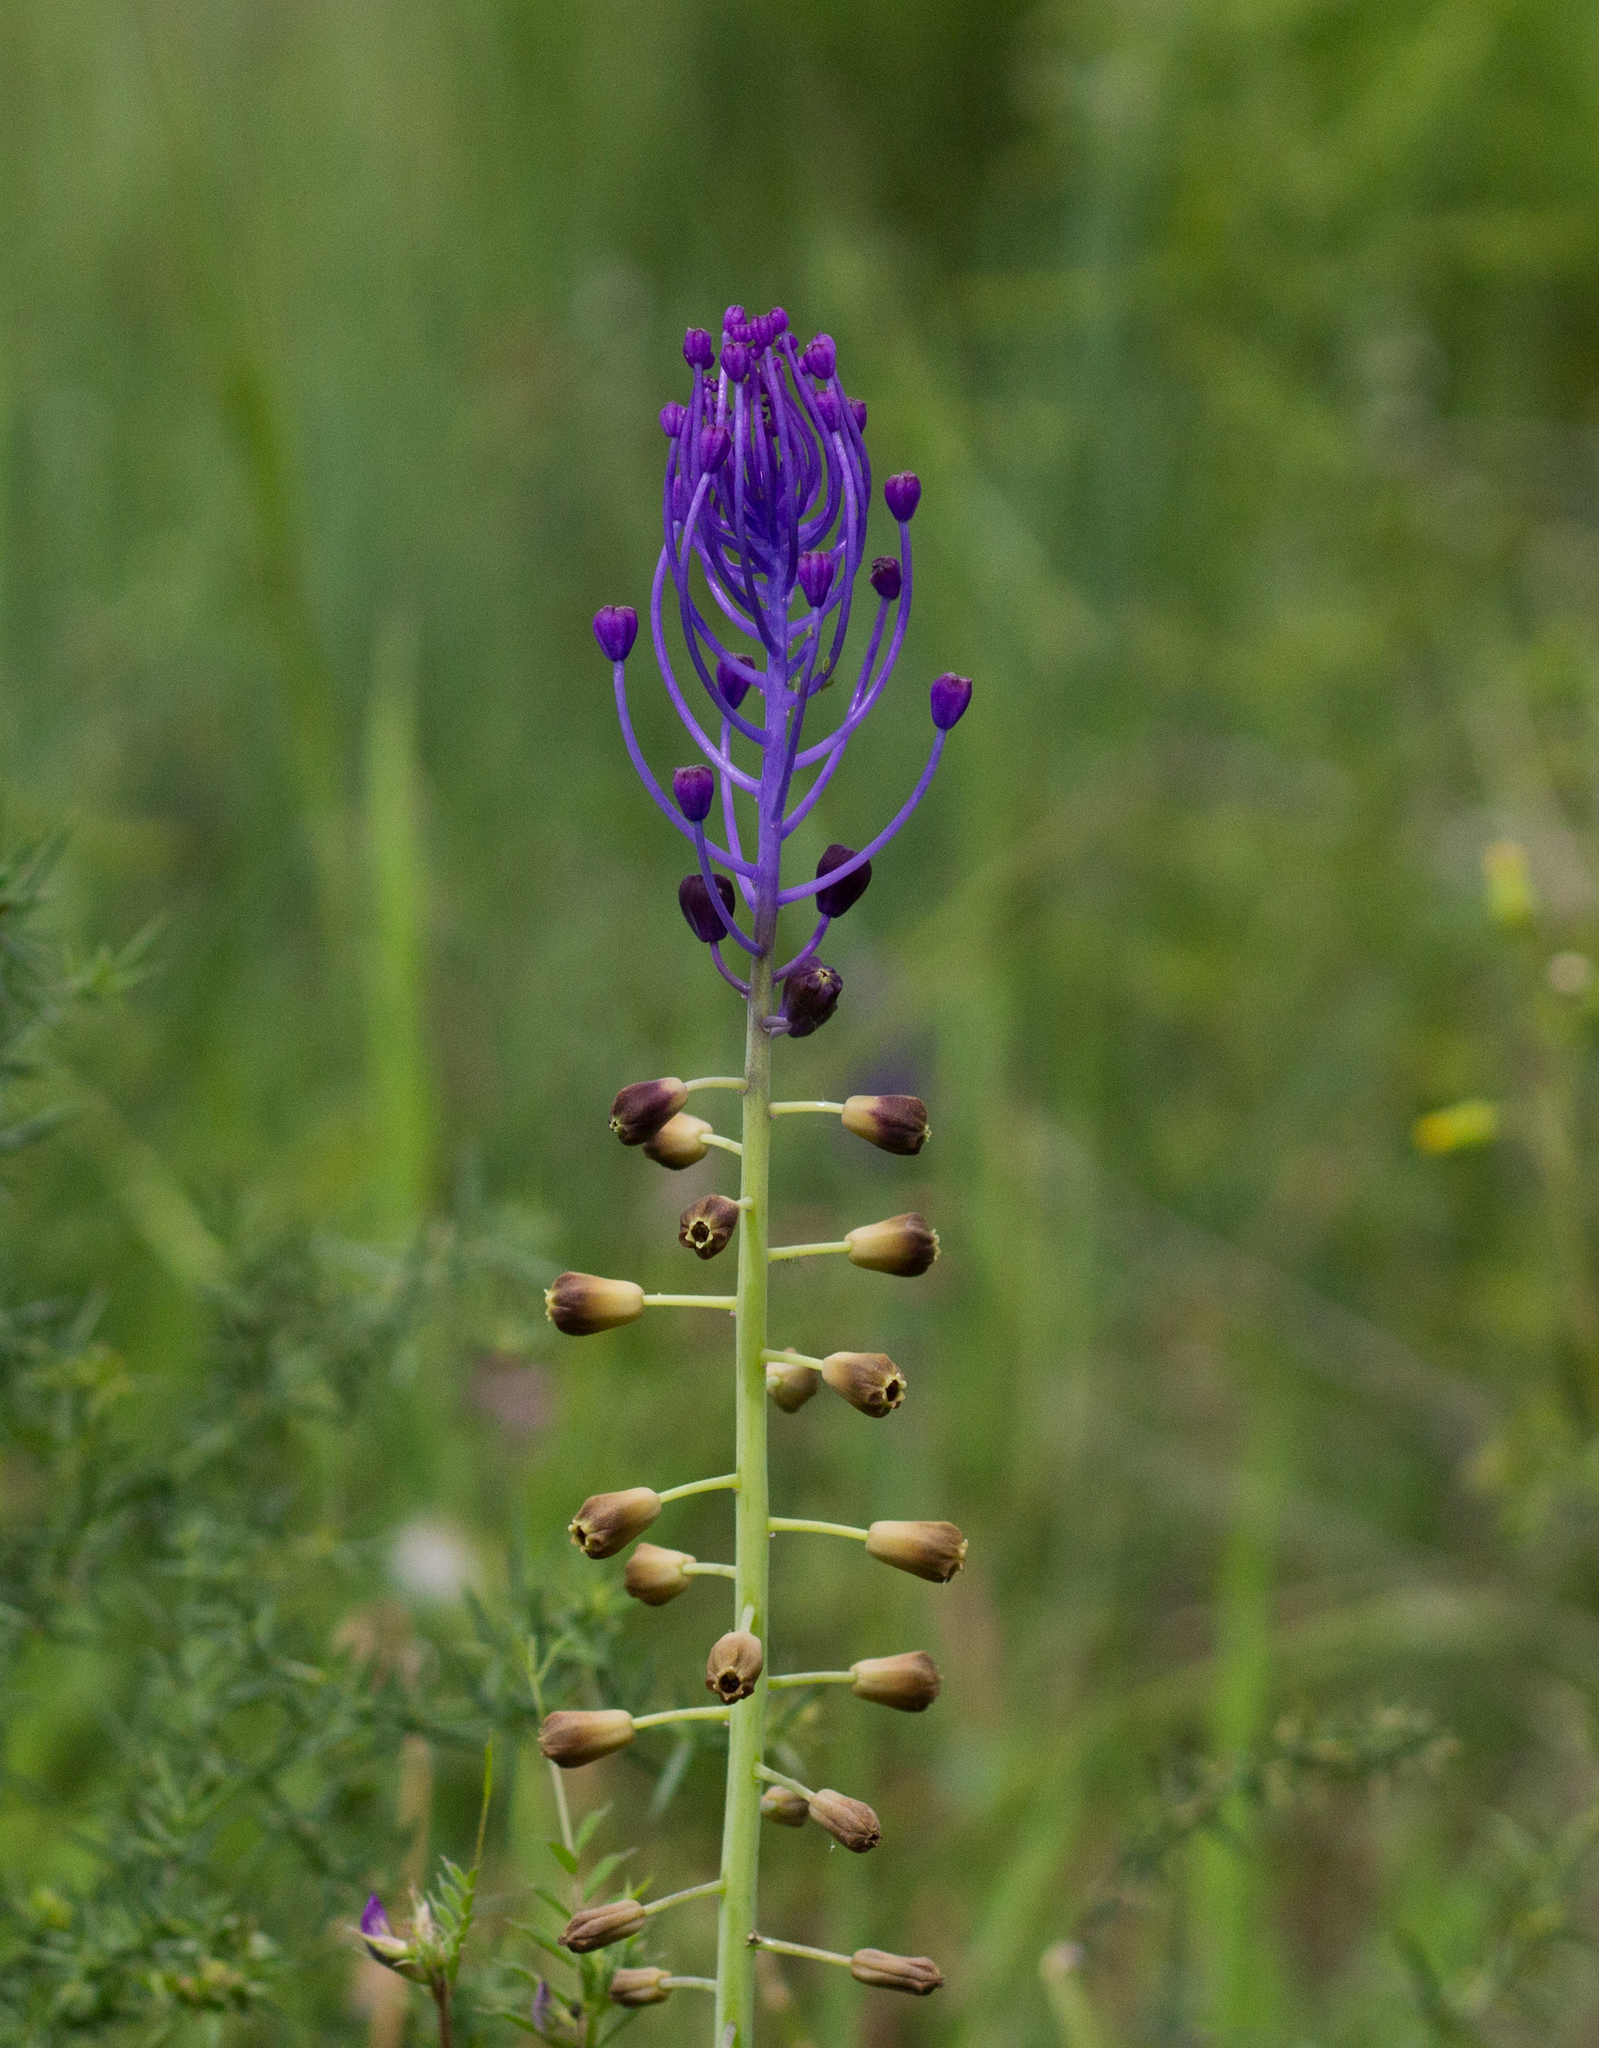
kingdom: Plantae
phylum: Tracheophyta
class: Liliopsida
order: Asparagales
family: Asparagaceae
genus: Muscari
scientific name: Muscari comosum
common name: Tassel hyacinth
